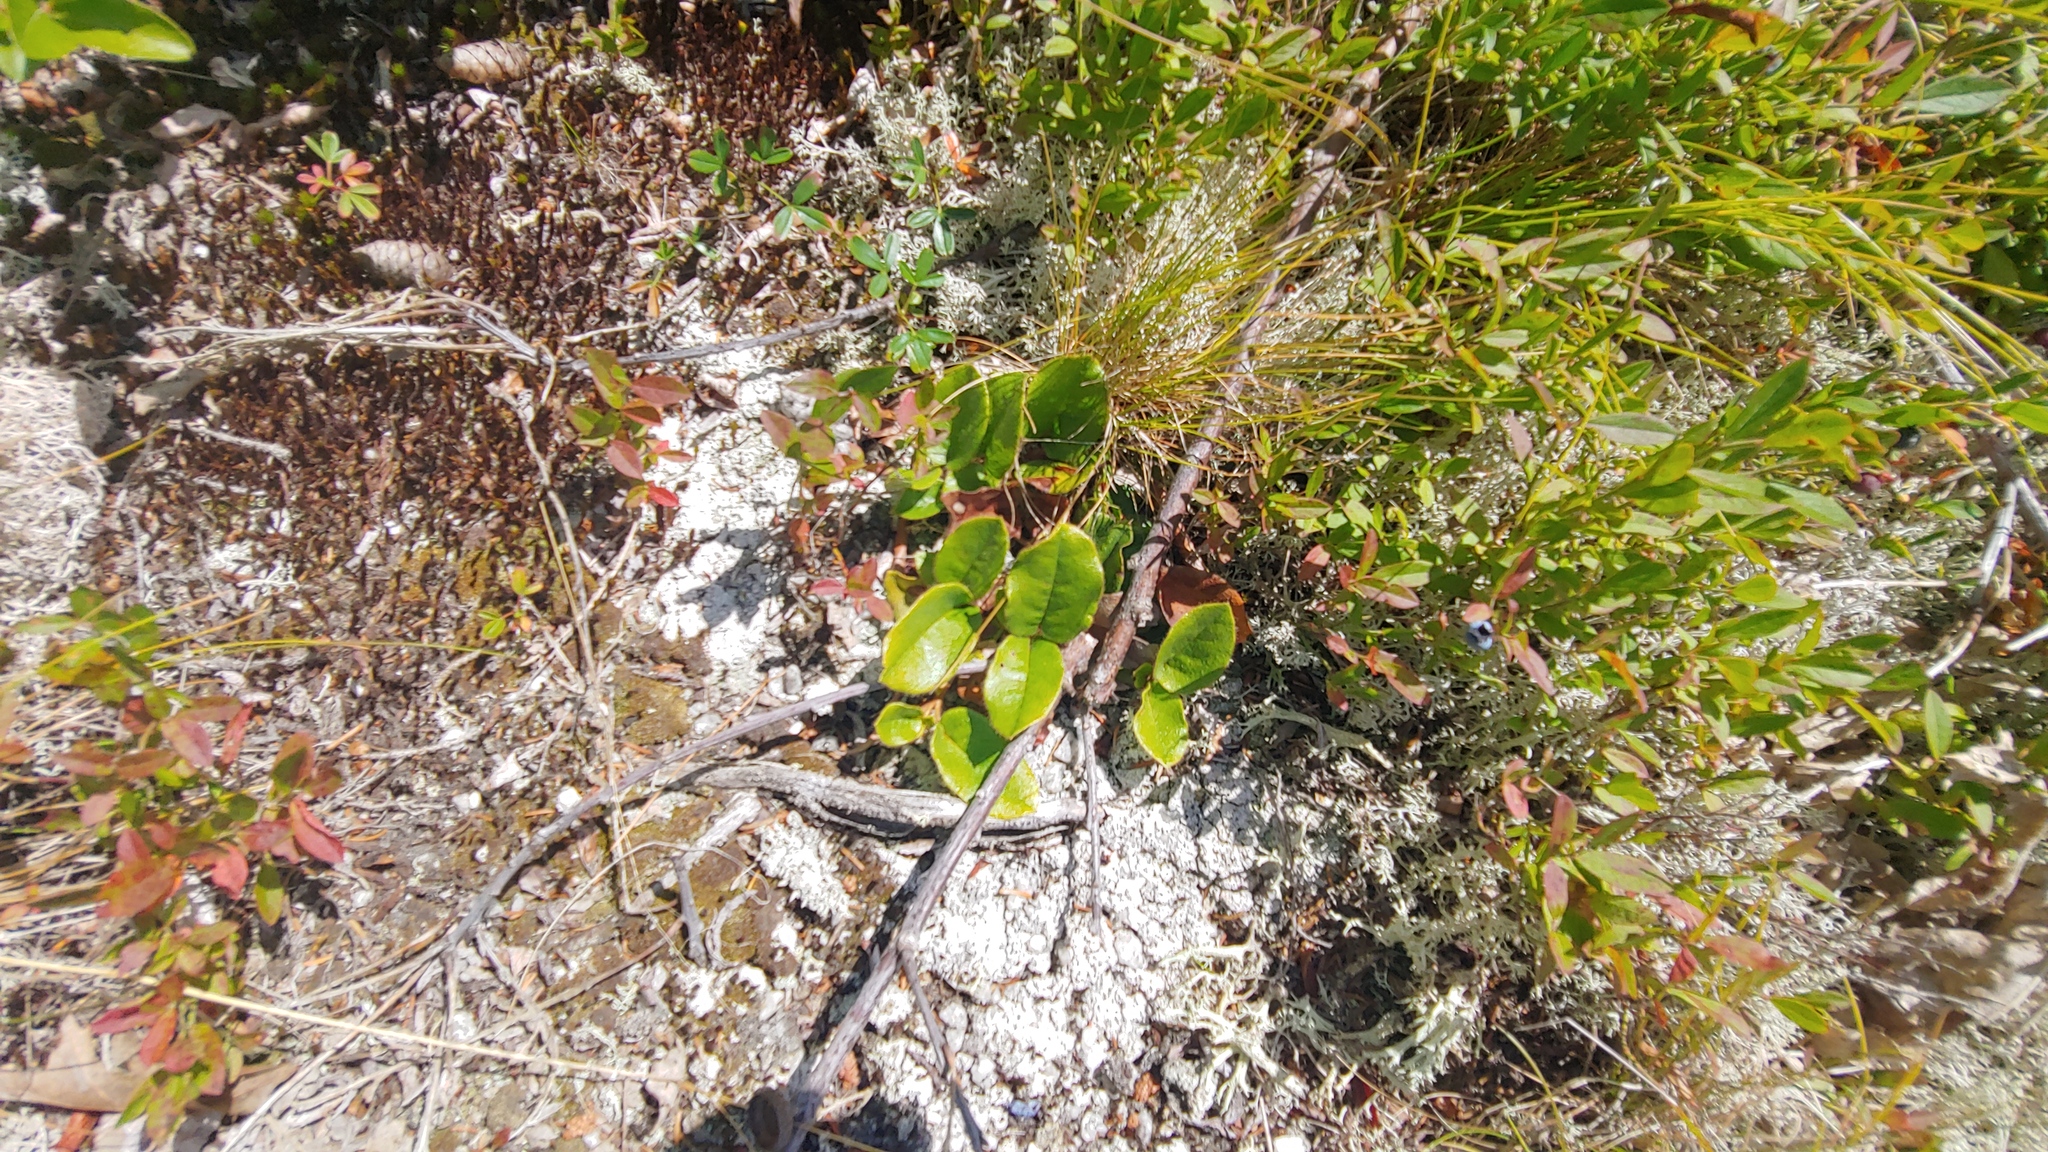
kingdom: Plantae
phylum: Tracheophyta
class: Magnoliopsida
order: Ericales
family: Ericaceae
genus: Epigaea
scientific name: Epigaea repens
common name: Gravelroot
